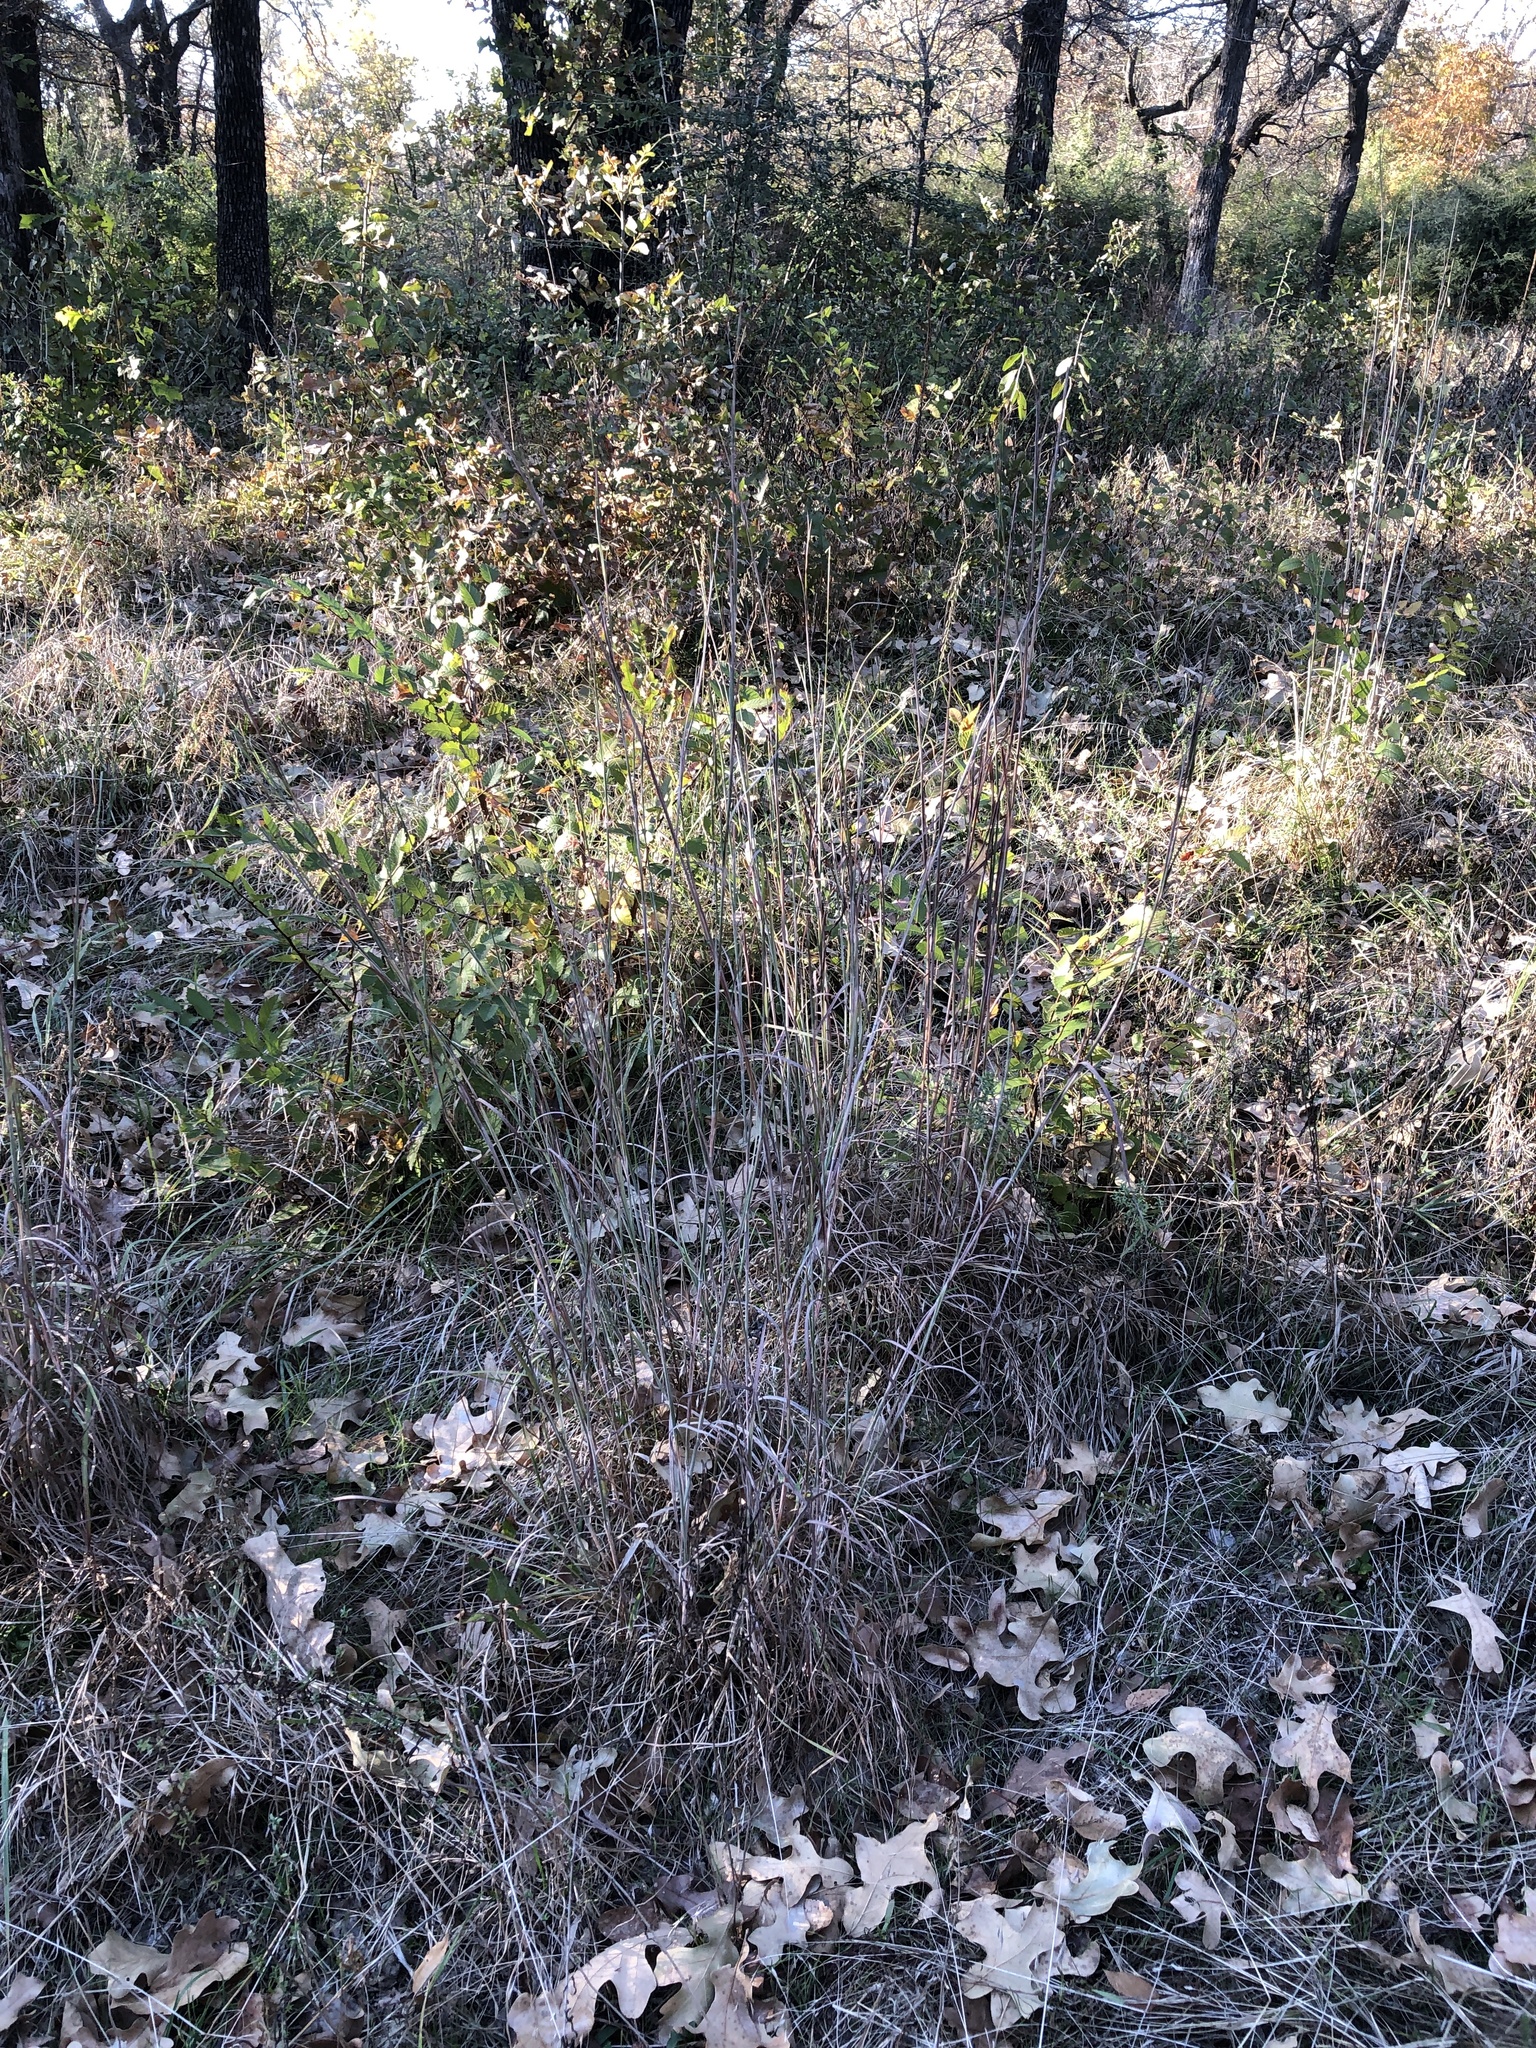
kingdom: Plantae
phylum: Tracheophyta
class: Liliopsida
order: Poales
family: Poaceae
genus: Schizachyrium
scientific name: Schizachyrium scoparium
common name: Little bluestem
